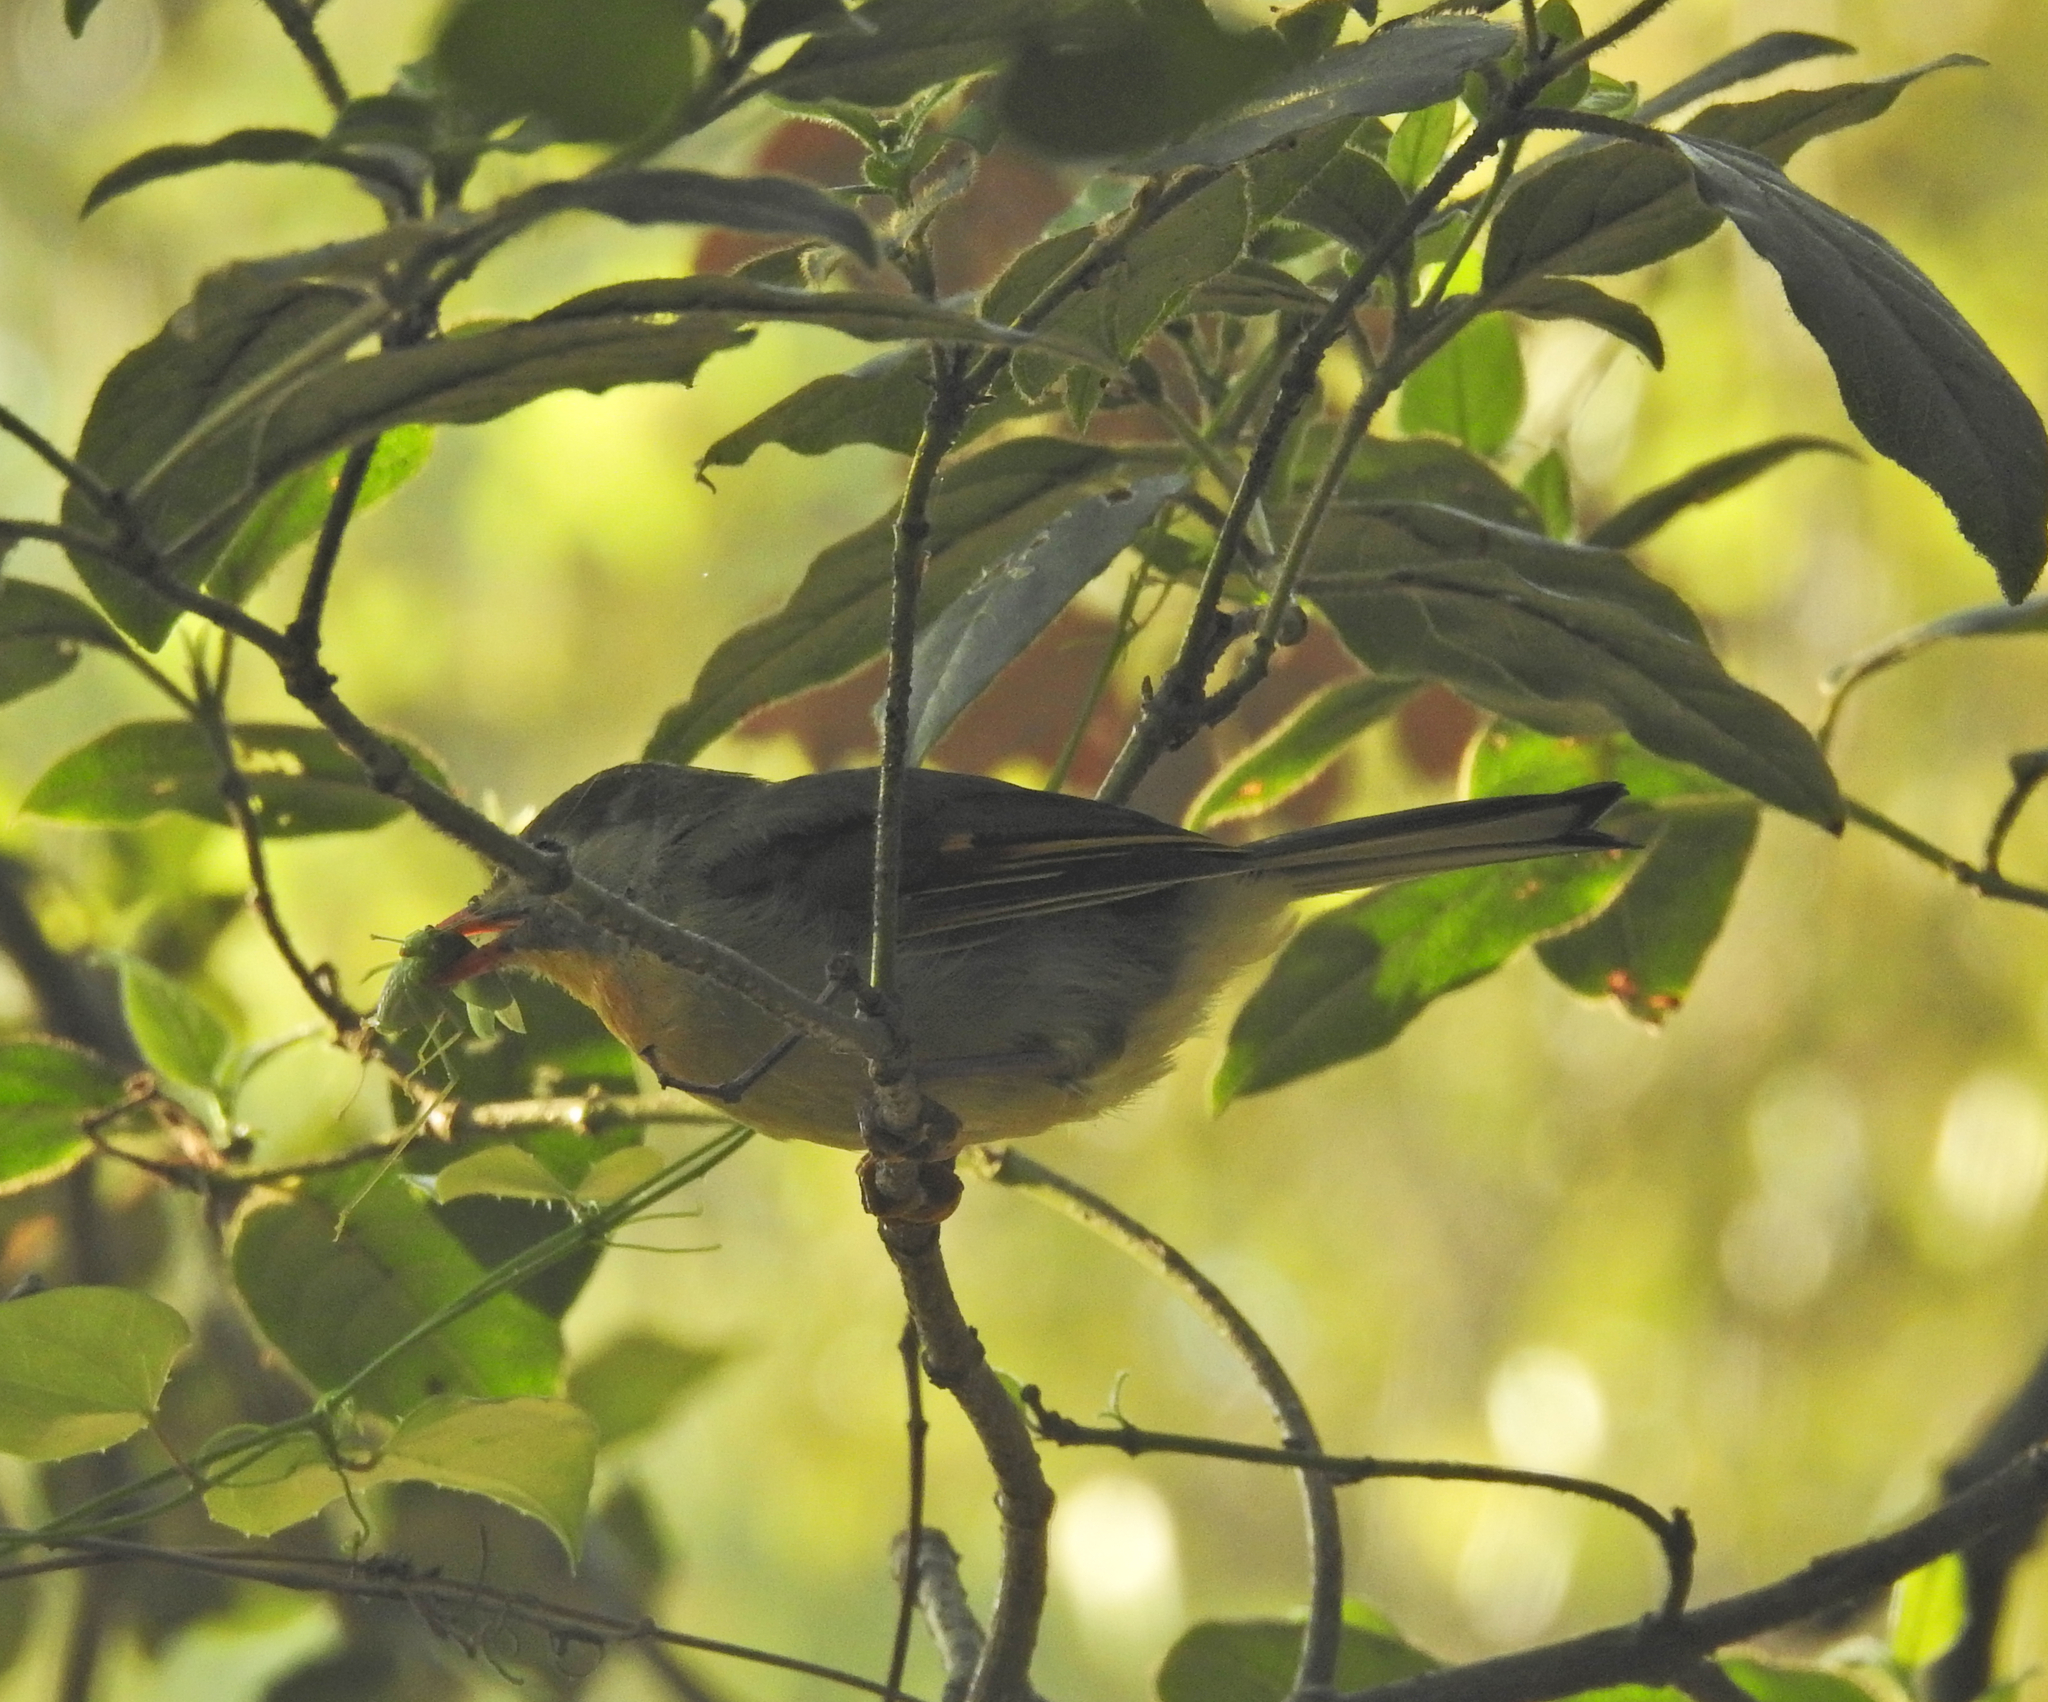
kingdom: Animalia
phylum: Chordata
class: Aves
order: Passeriformes
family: Leiothrichidae
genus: Leiothrix
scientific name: Leiothrix lutea
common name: Red-billed leiothrix
